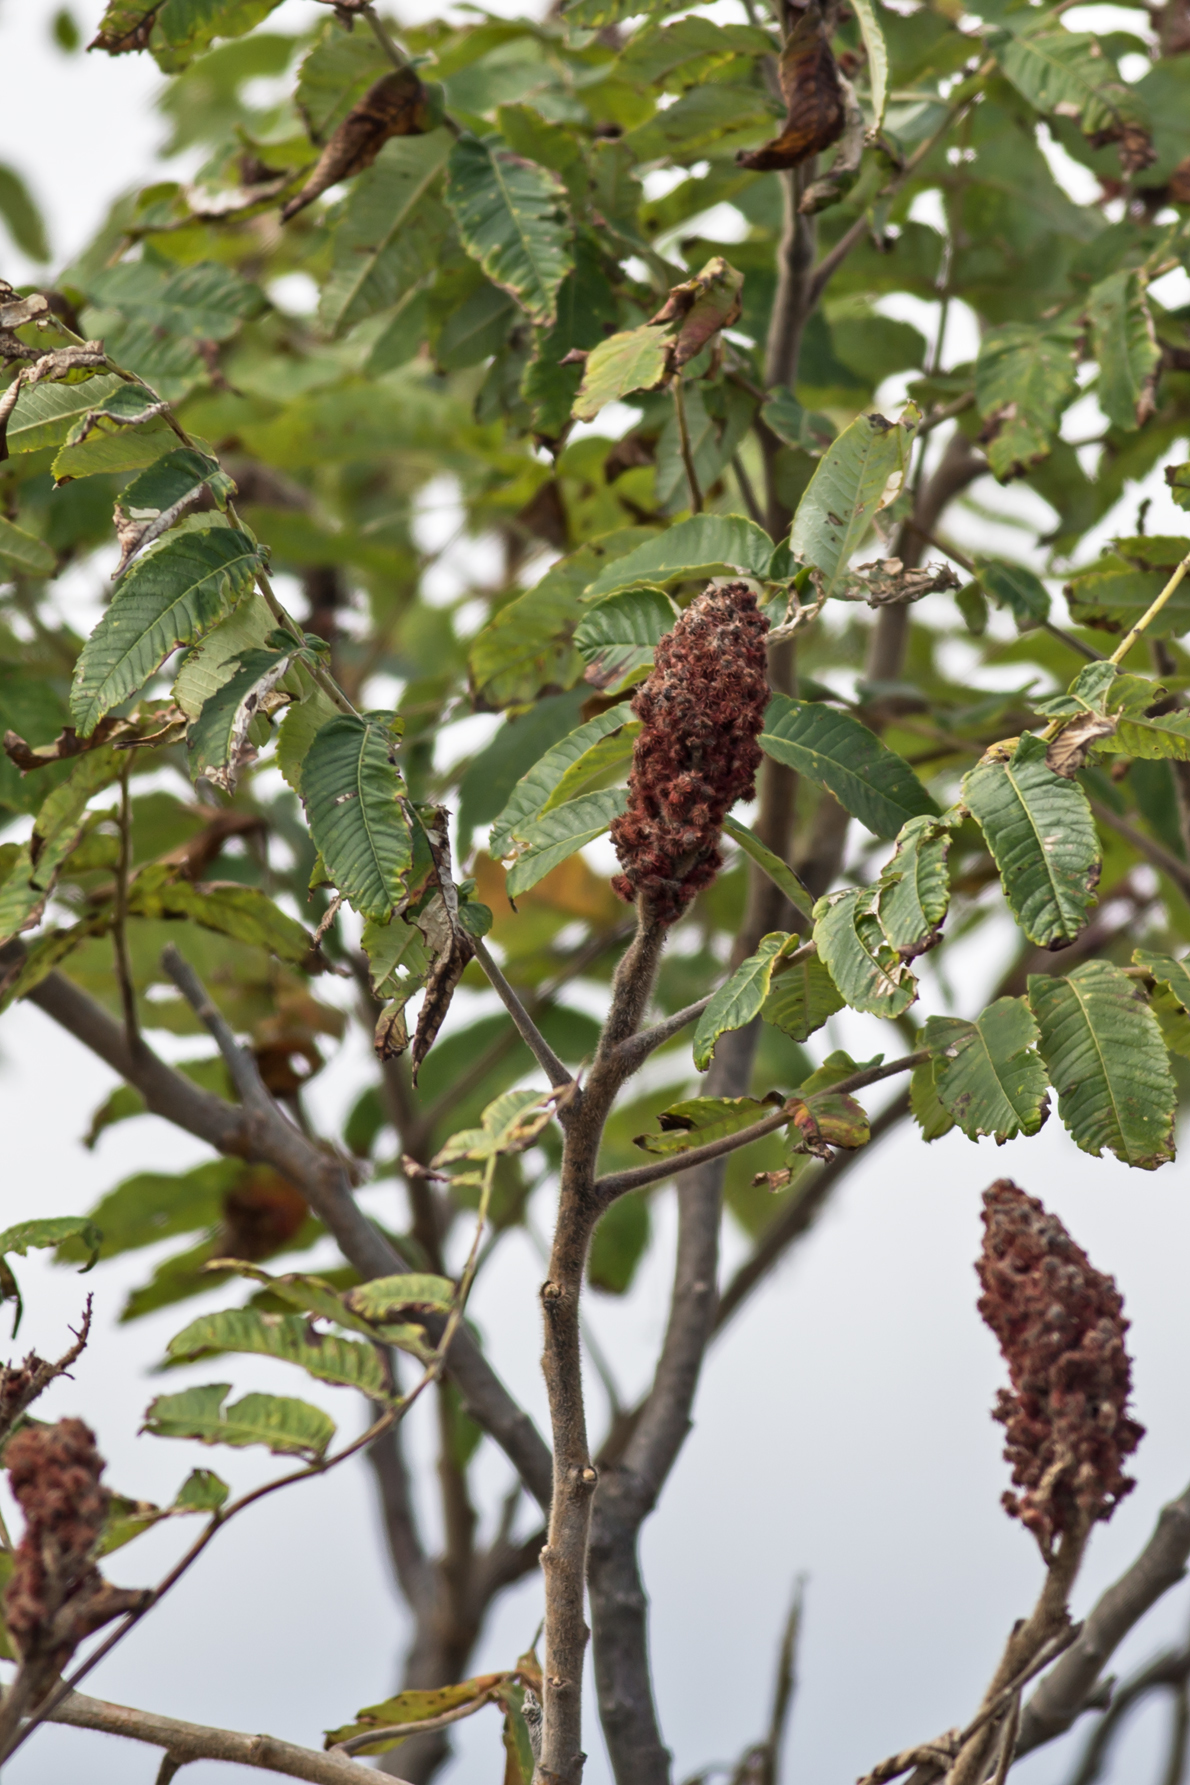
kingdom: Plantae
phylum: Tracheophyta
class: Magnoliopsida
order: Sapindales
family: Anacardiaceae
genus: Rhus
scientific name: Rhus typhina
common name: Staghorn sumac
